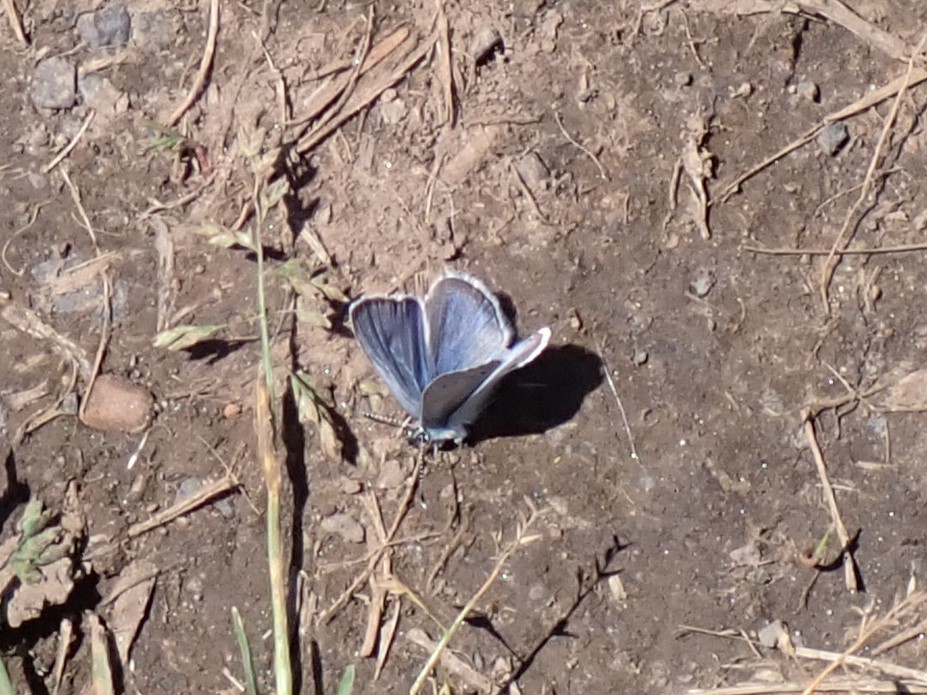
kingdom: Animalia
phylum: Arthropoda
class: Insecta
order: Lepidoptera
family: Lycaenidae
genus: Glaucopsyche
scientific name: Glaucopsyche lygdamus
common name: Silvery blue
